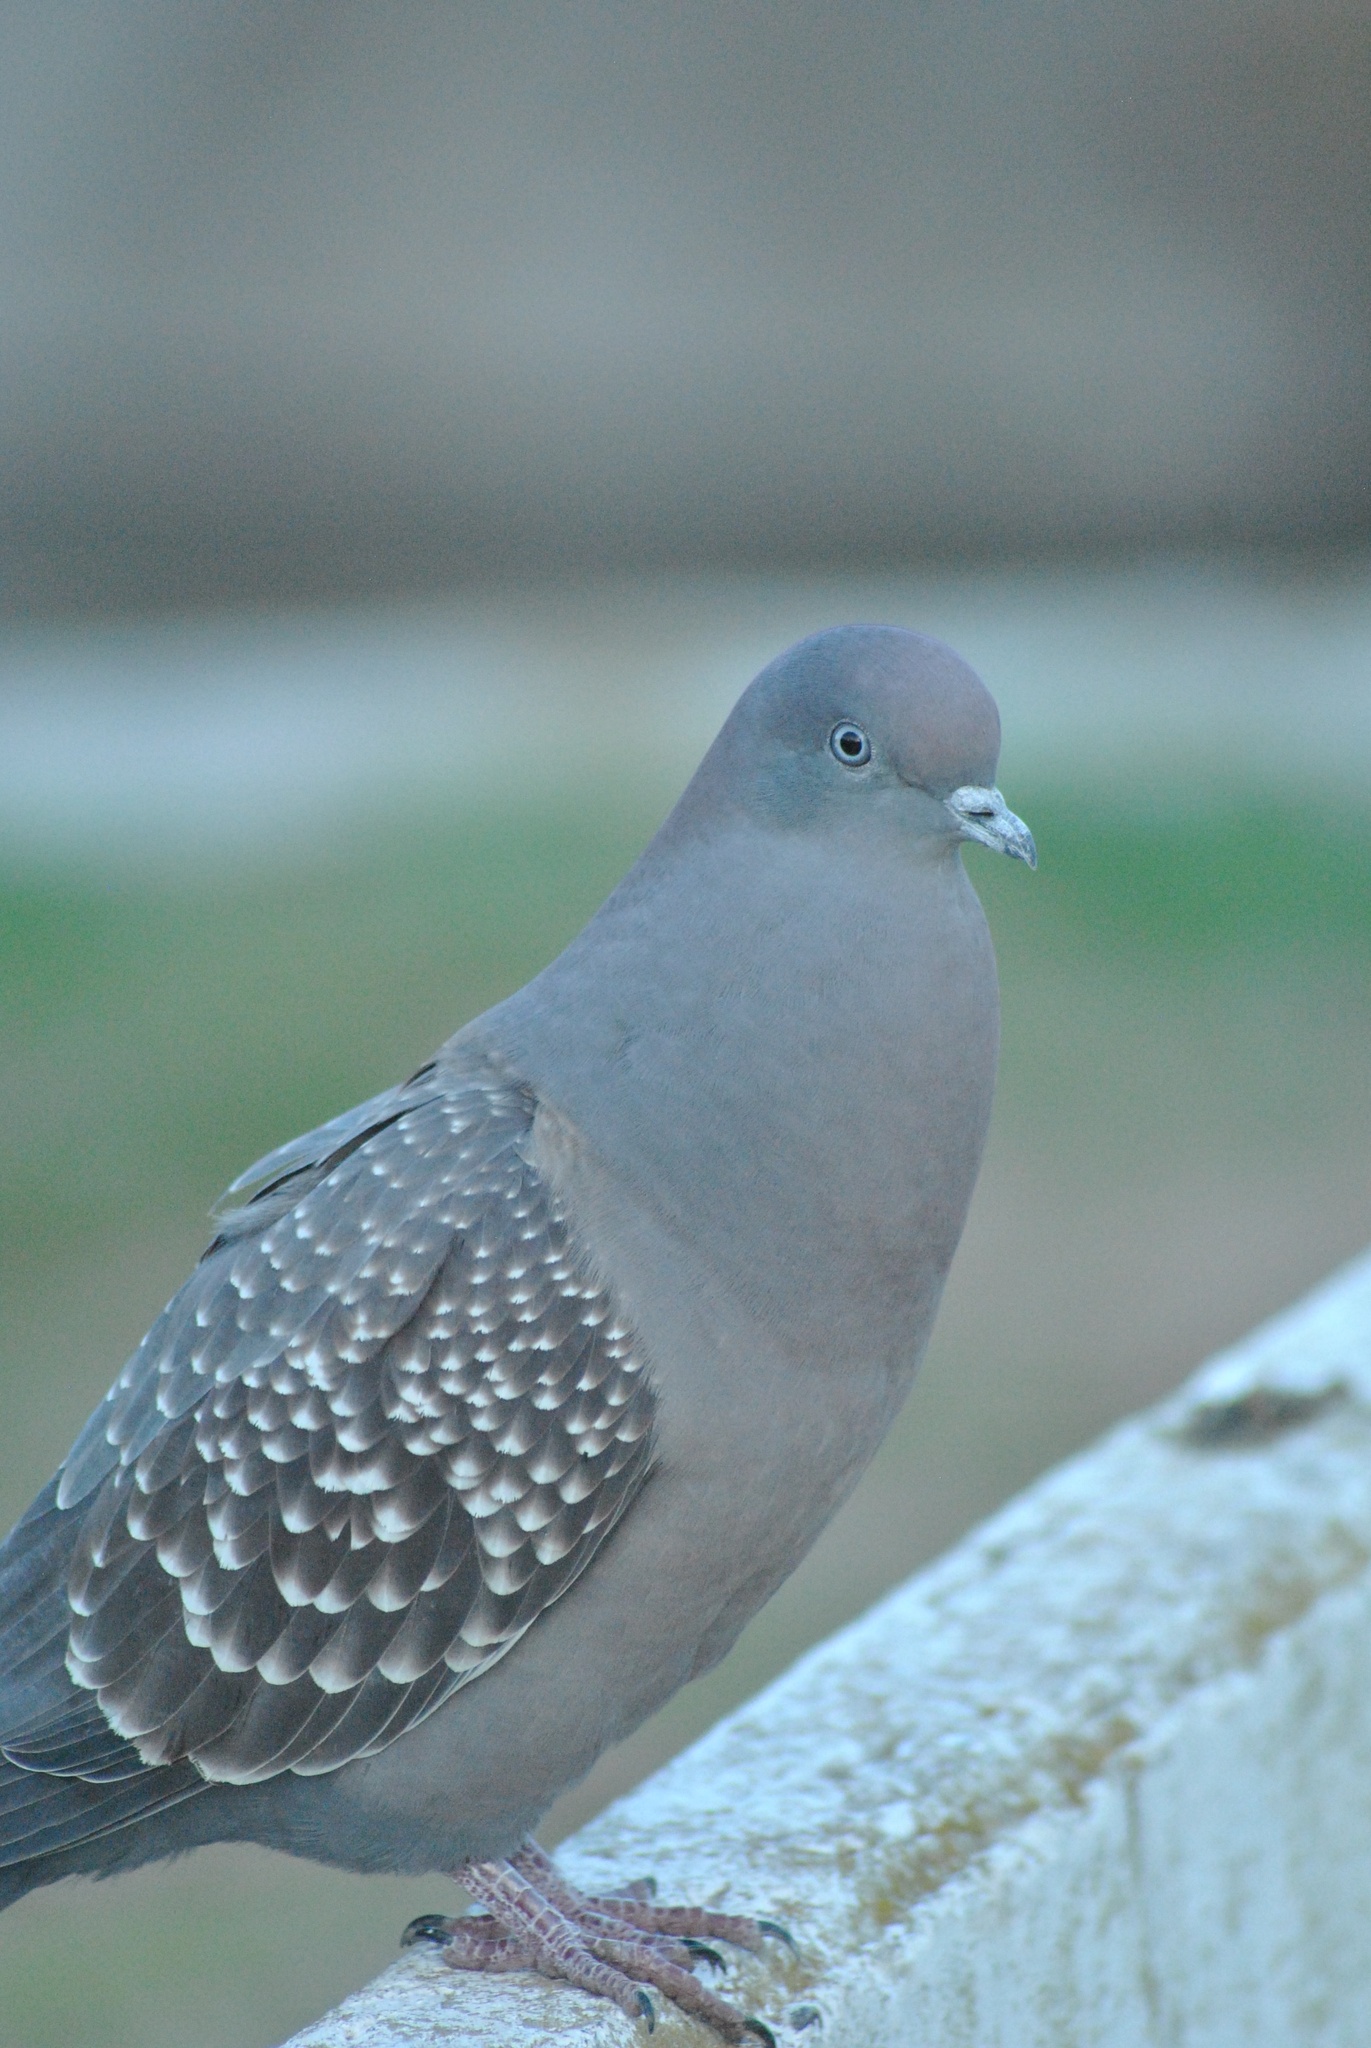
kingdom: Animalia
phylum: Chordata
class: Aves
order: Columbiformes
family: Columbidae
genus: Patagioenas
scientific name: Patagioenas maculosa
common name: Spot-winged pigeon
